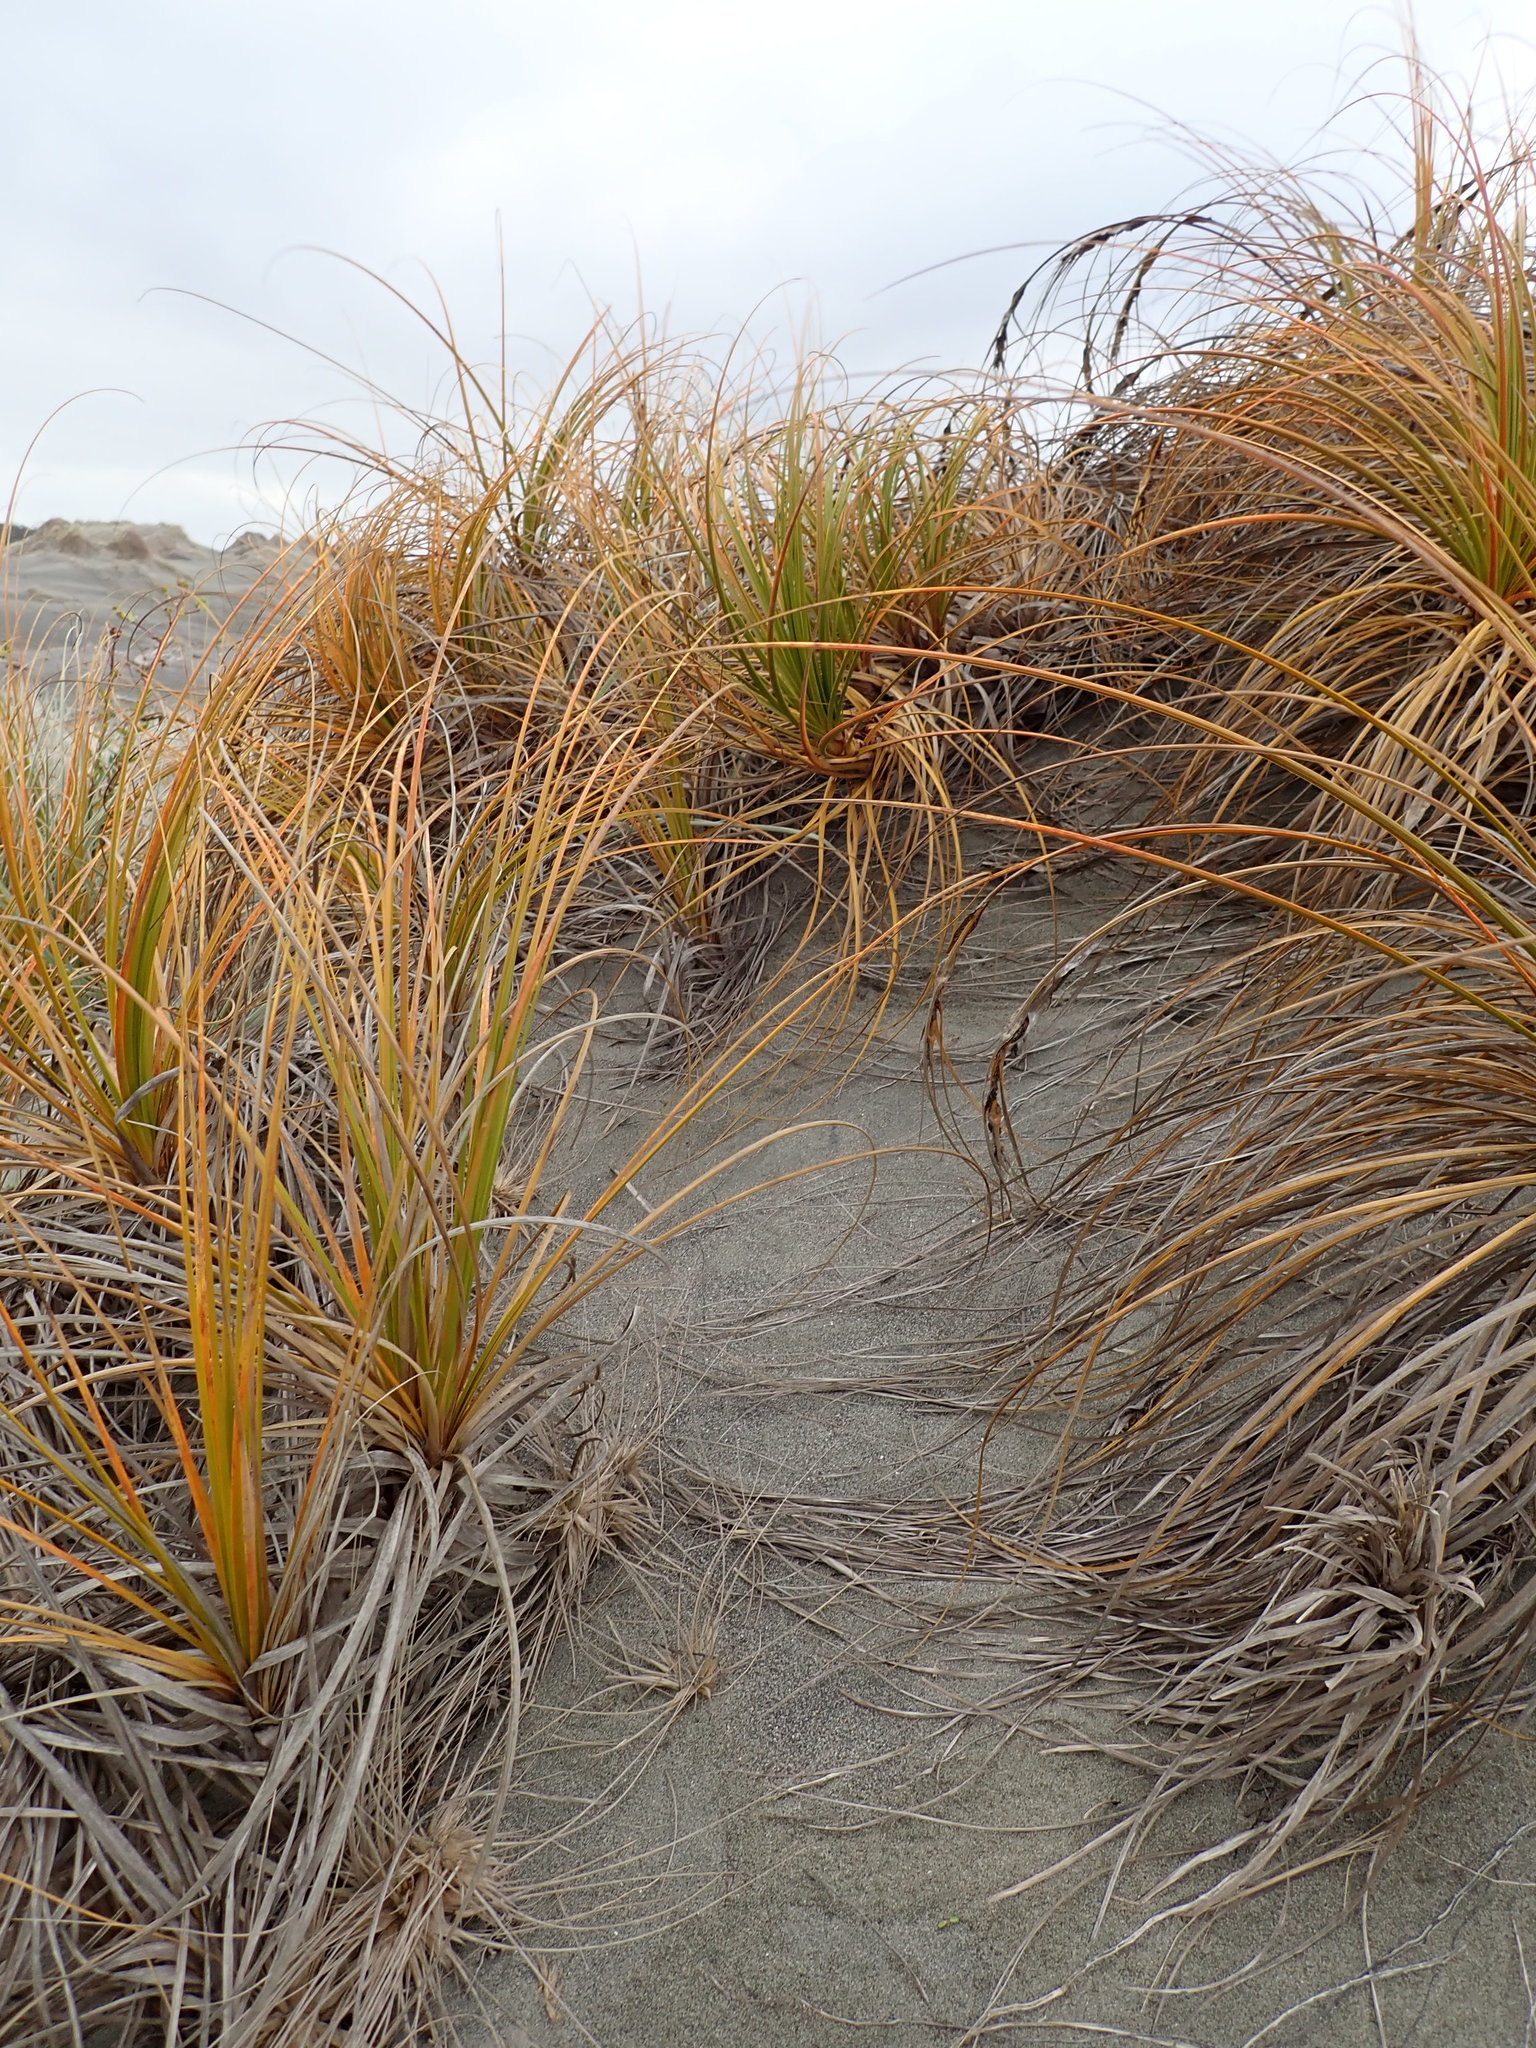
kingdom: Plantae
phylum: Tracheophyta
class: Liliopsida
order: Poales
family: Cyperaceae
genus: Ficinia
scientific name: Ficinia spiralis
